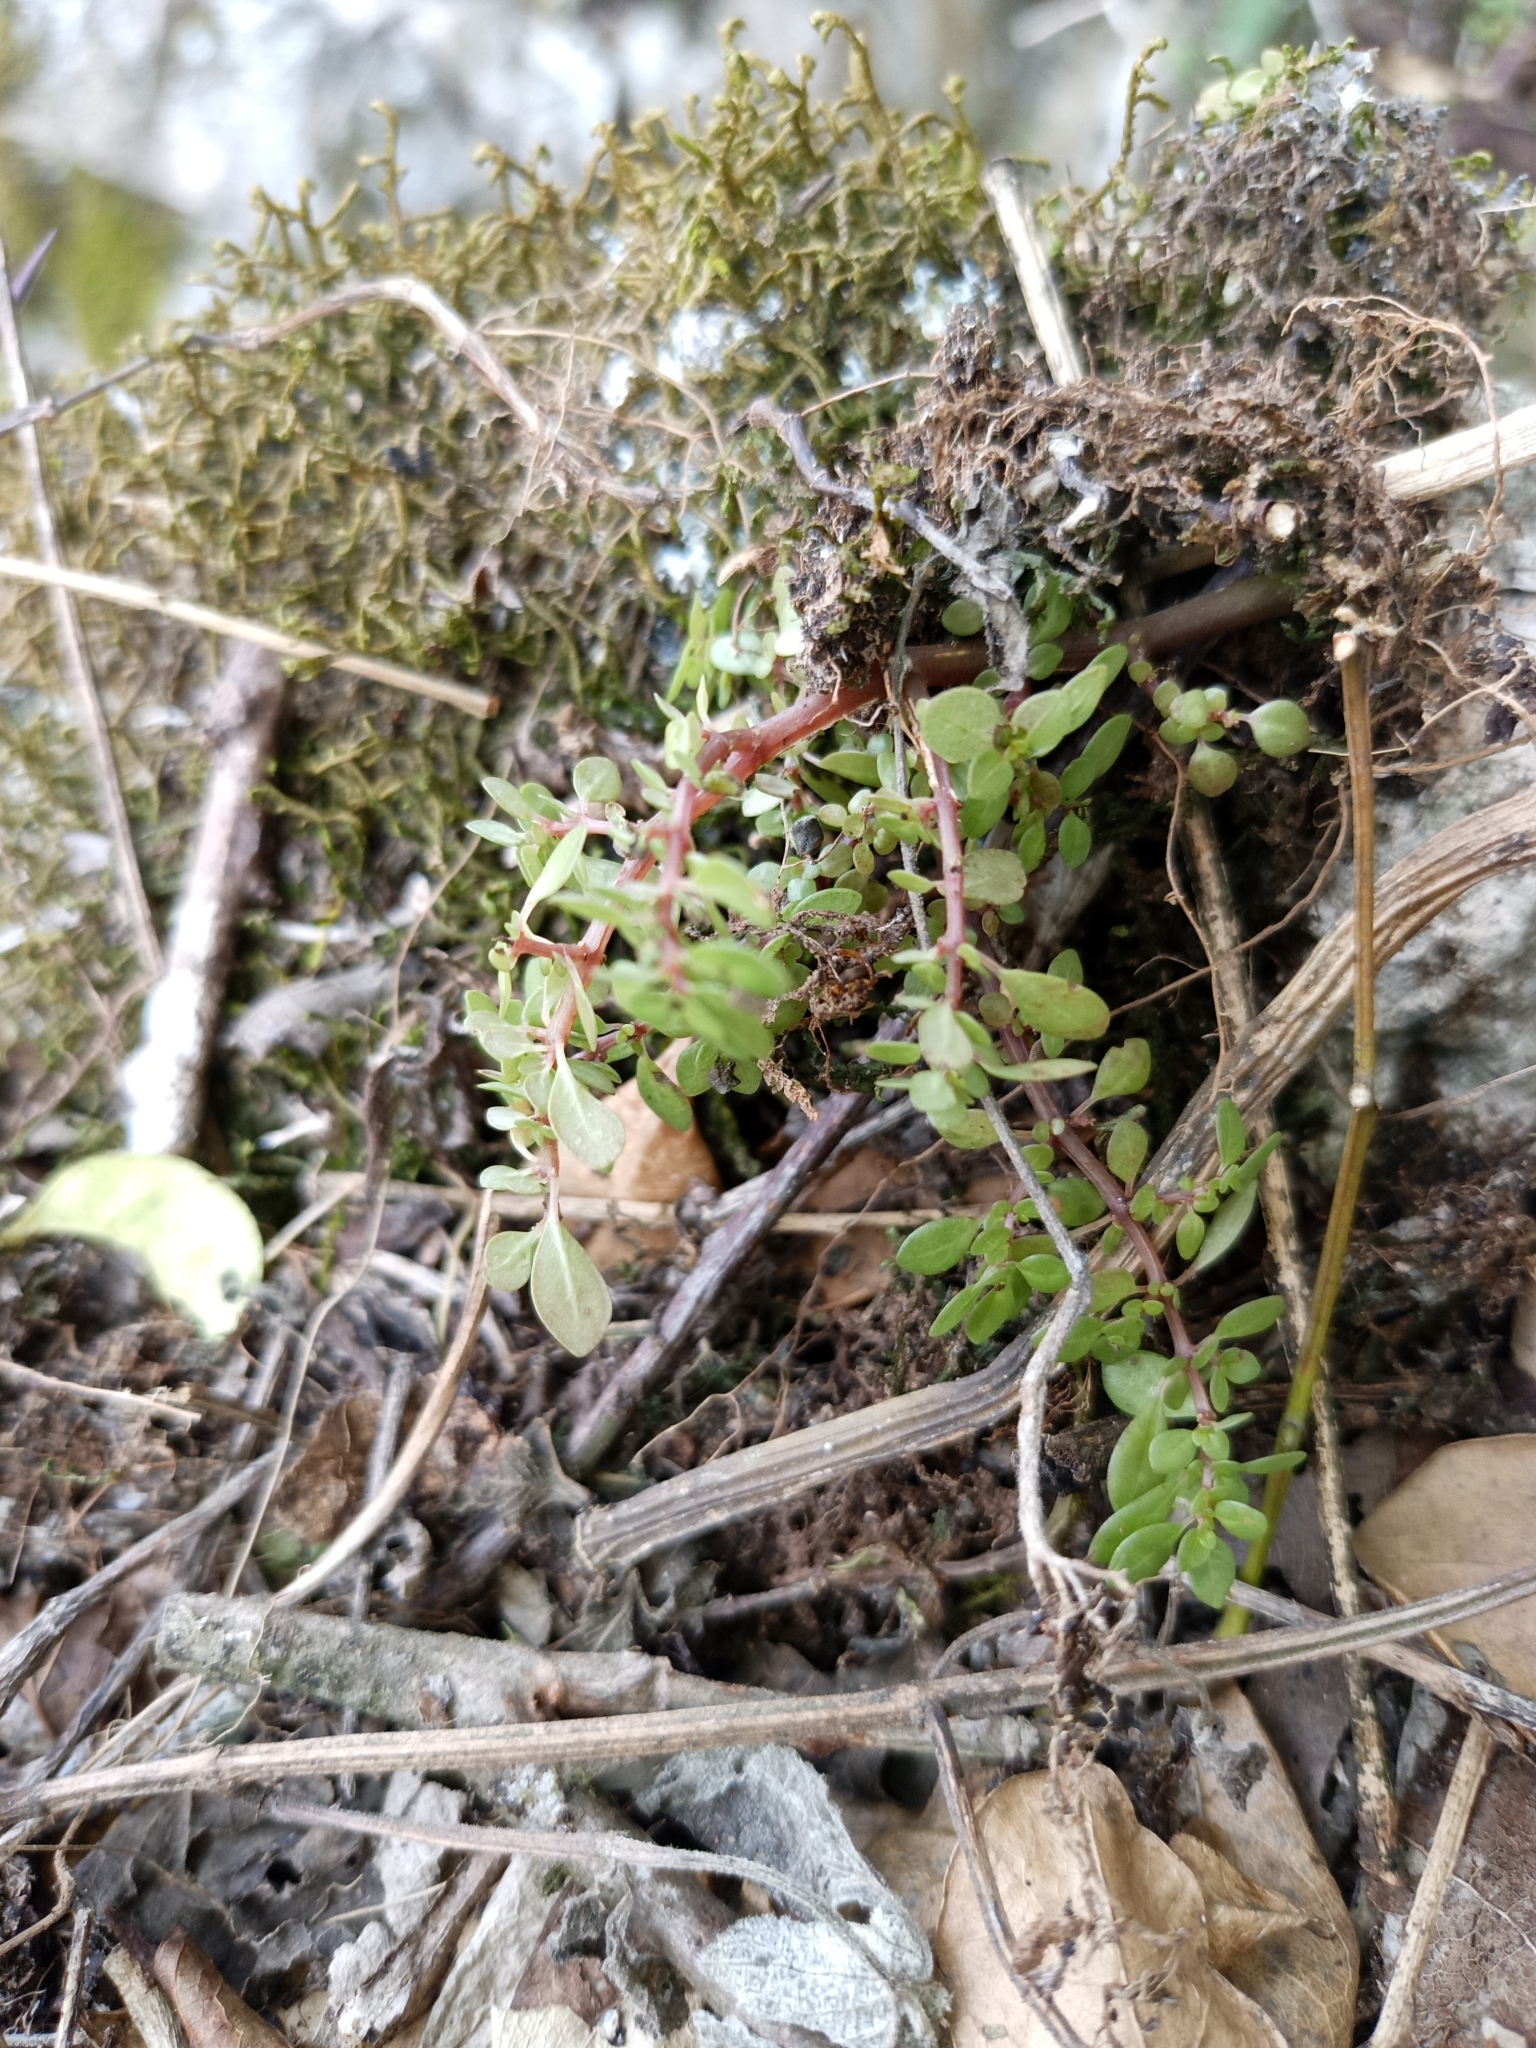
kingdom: Plantae
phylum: Tracheophyta
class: Magnoliopsida
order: Rosales
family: Urticaceae
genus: Pilea
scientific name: Pilea microphylla
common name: Artillery-plant
